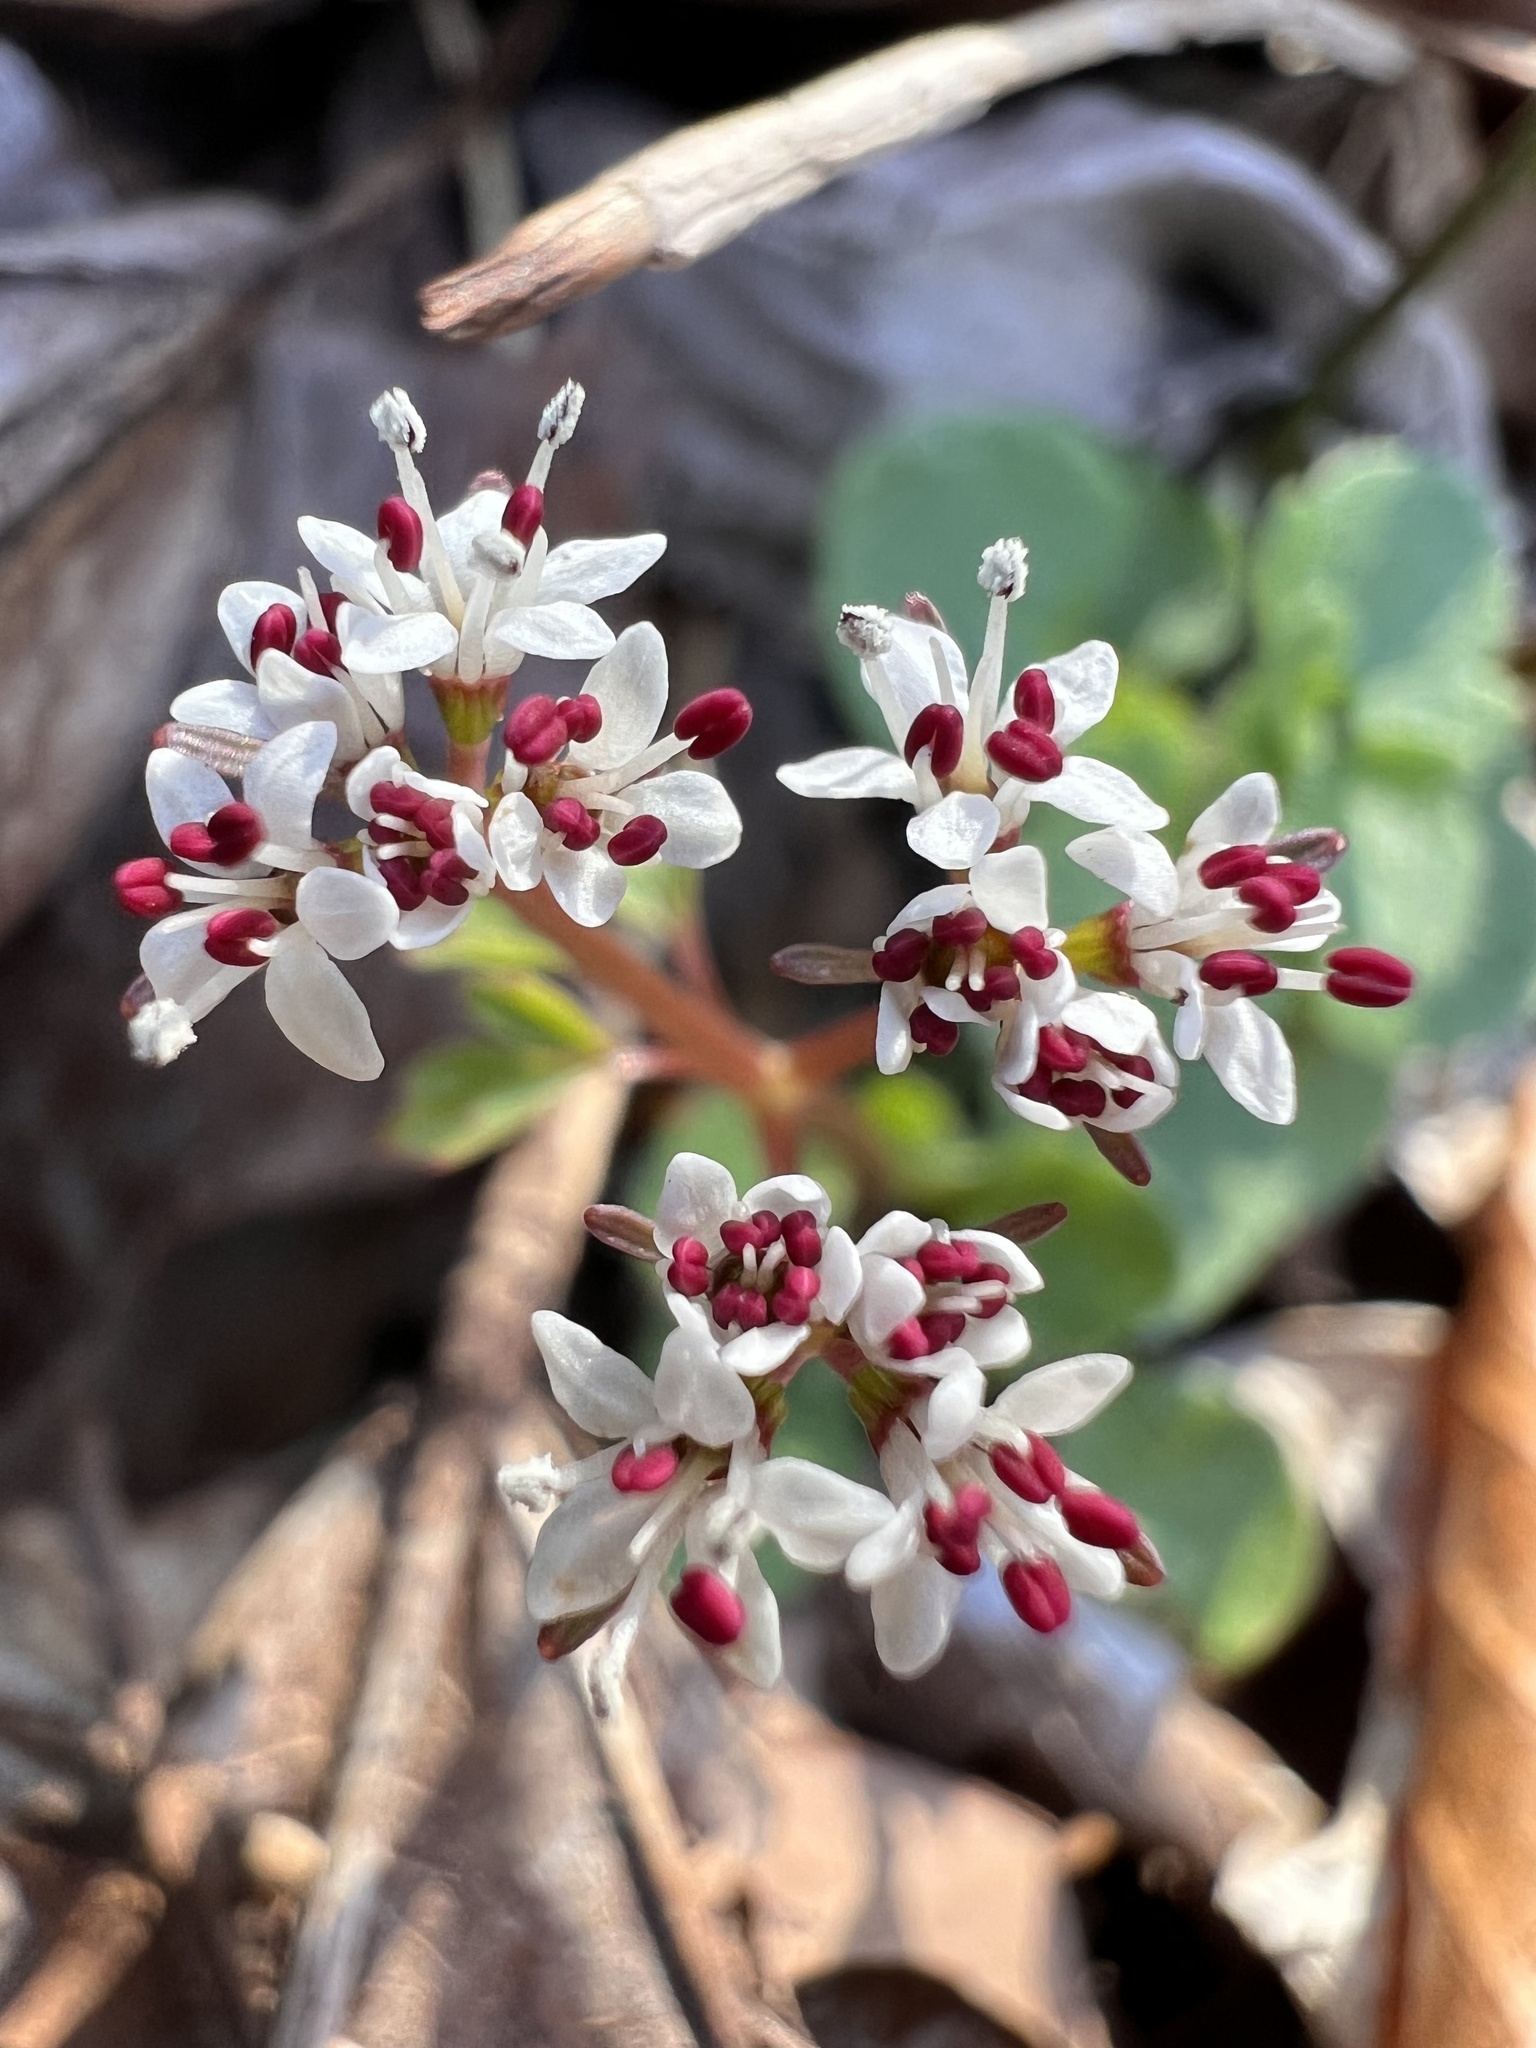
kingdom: Plantae
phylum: Tracheophyta
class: Magnoliopsida
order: Apiales
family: Apiaceae
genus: Erigenia
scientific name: Erigenia bulbosa
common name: Pepper-and-salt
